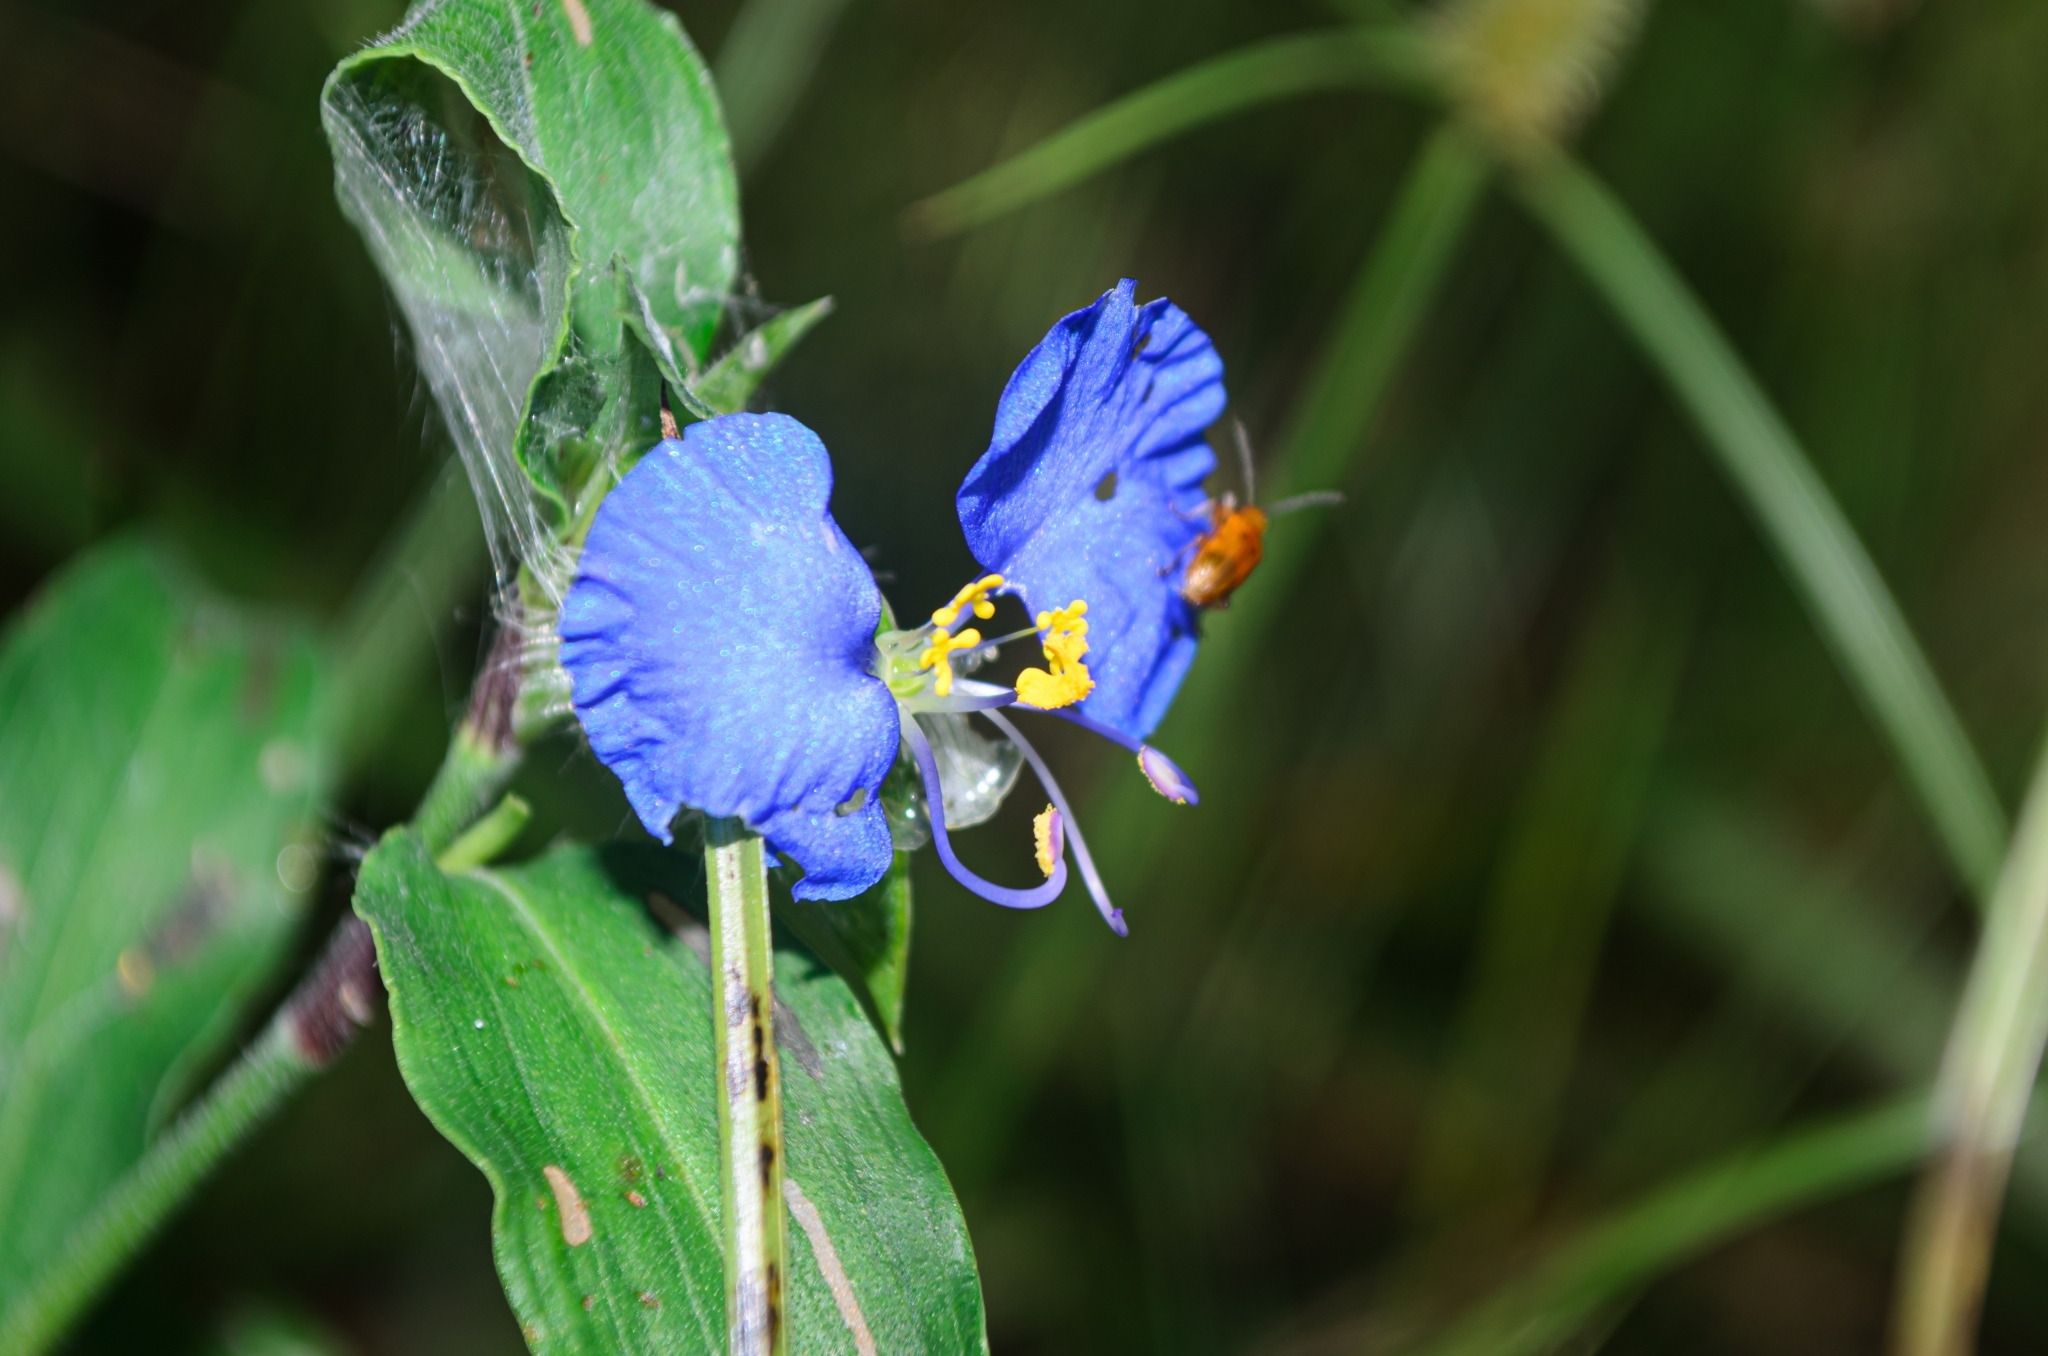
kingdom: Plantae
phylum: Tracheophyta
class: Liliopsida
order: Commelinales
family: Commelinaceae
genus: Commelina
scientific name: Commelina erecta
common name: Blousel blommetjie
